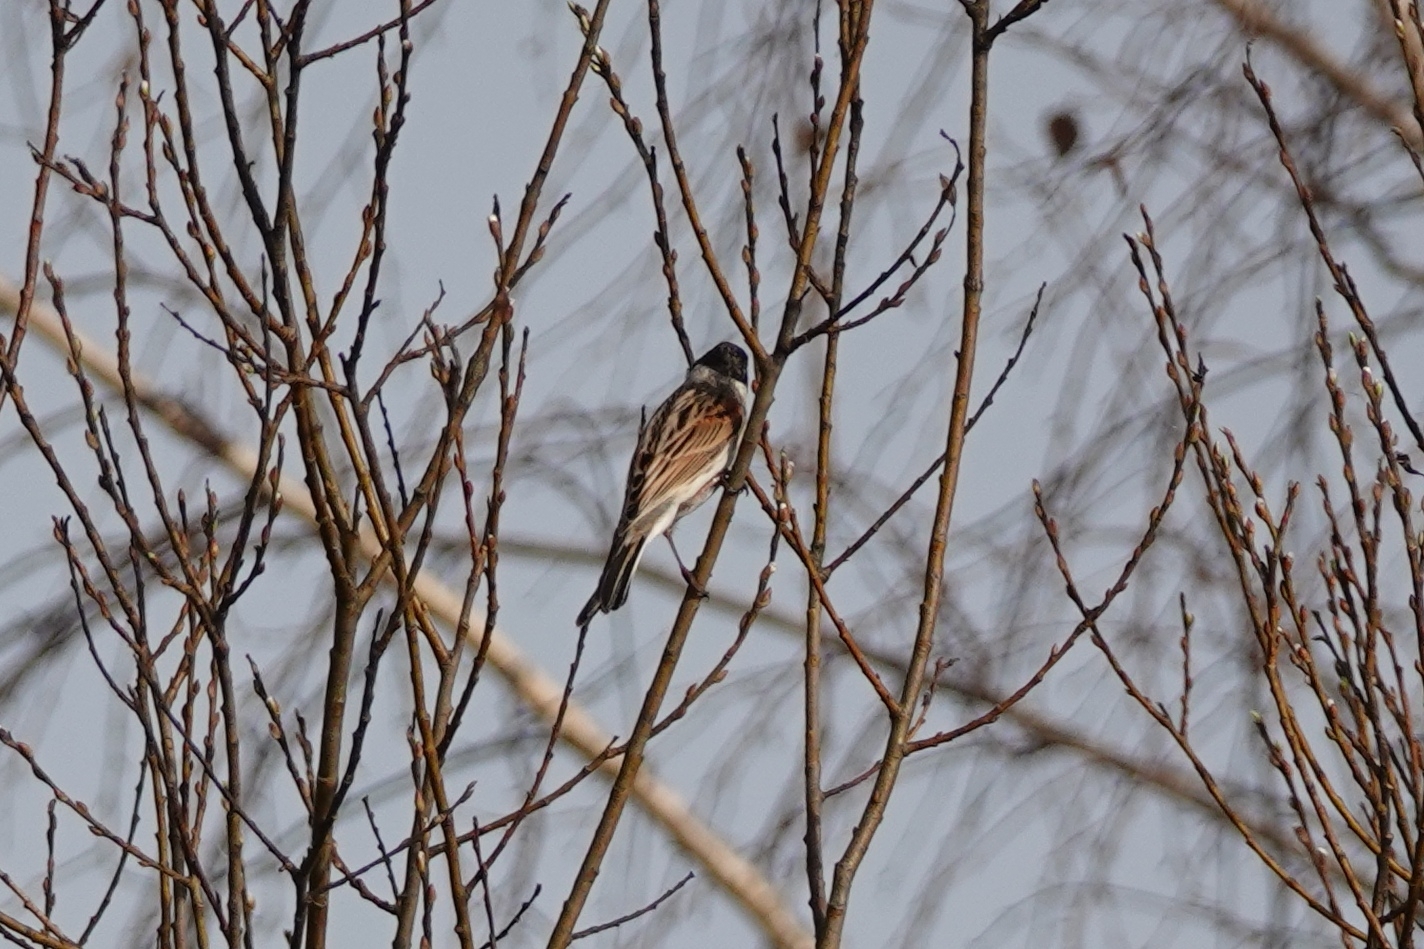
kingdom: Animalia
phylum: Chordata
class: Aves
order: Passeriformes
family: Emberizidae
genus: Emberiza
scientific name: Emberiza schoeniclus
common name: Reed bunting
